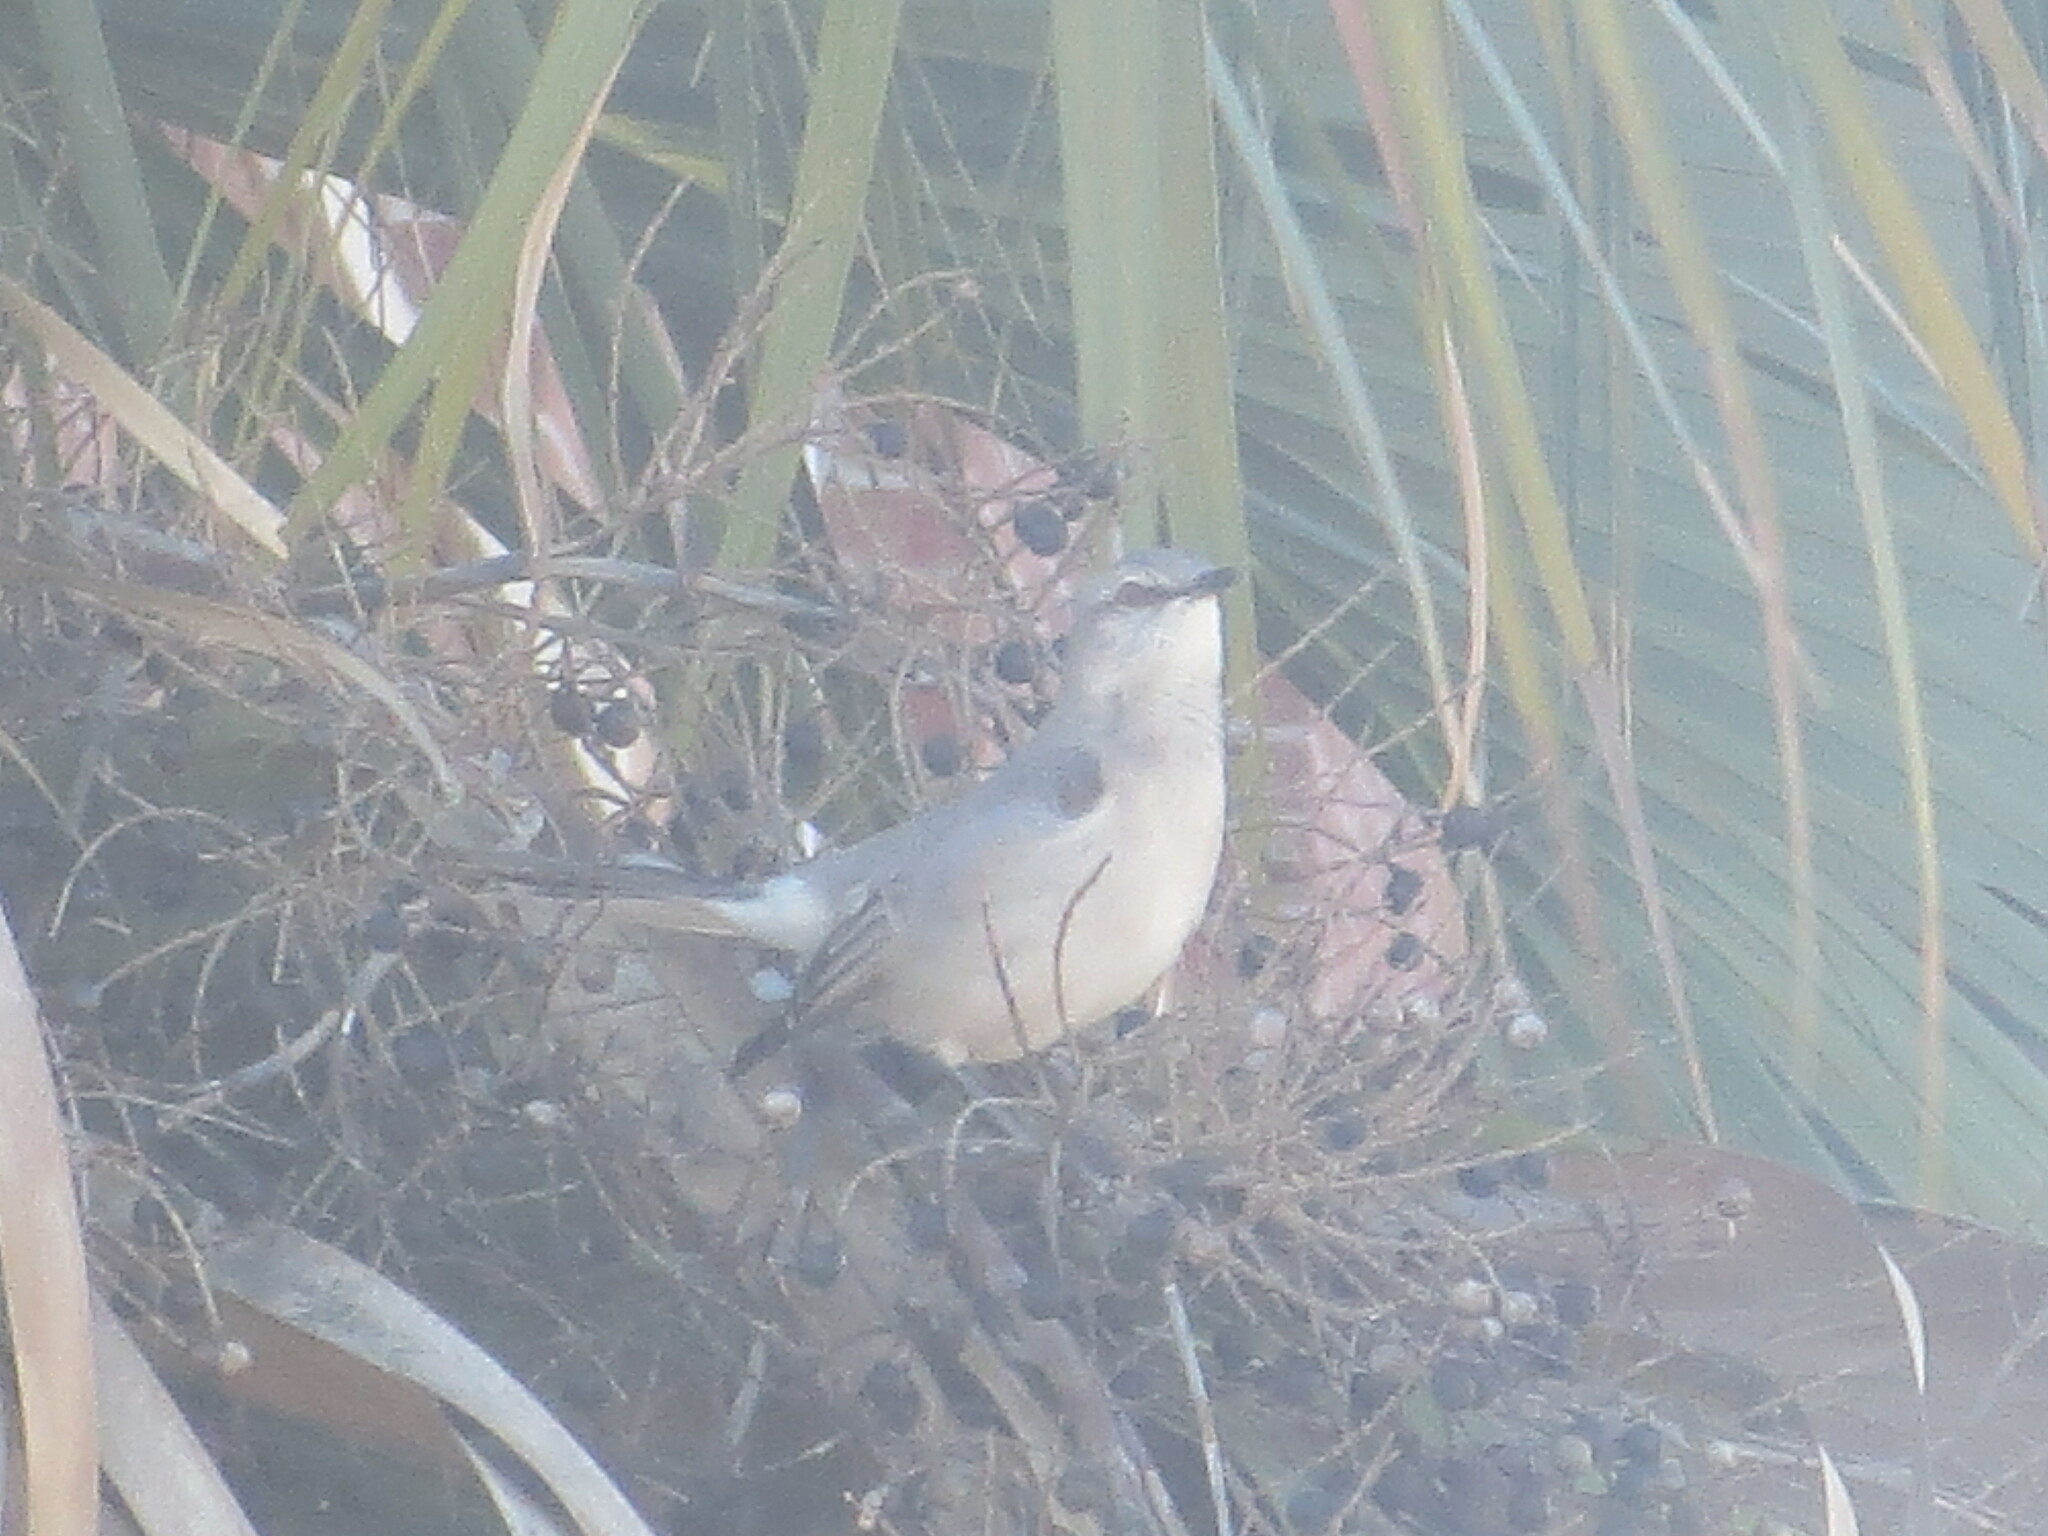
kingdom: Animalia
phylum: Chordata
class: Aves
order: Passeriformes
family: Mimidae
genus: Mimus
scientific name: Mimus polyglottos
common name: Northern mockingbird
